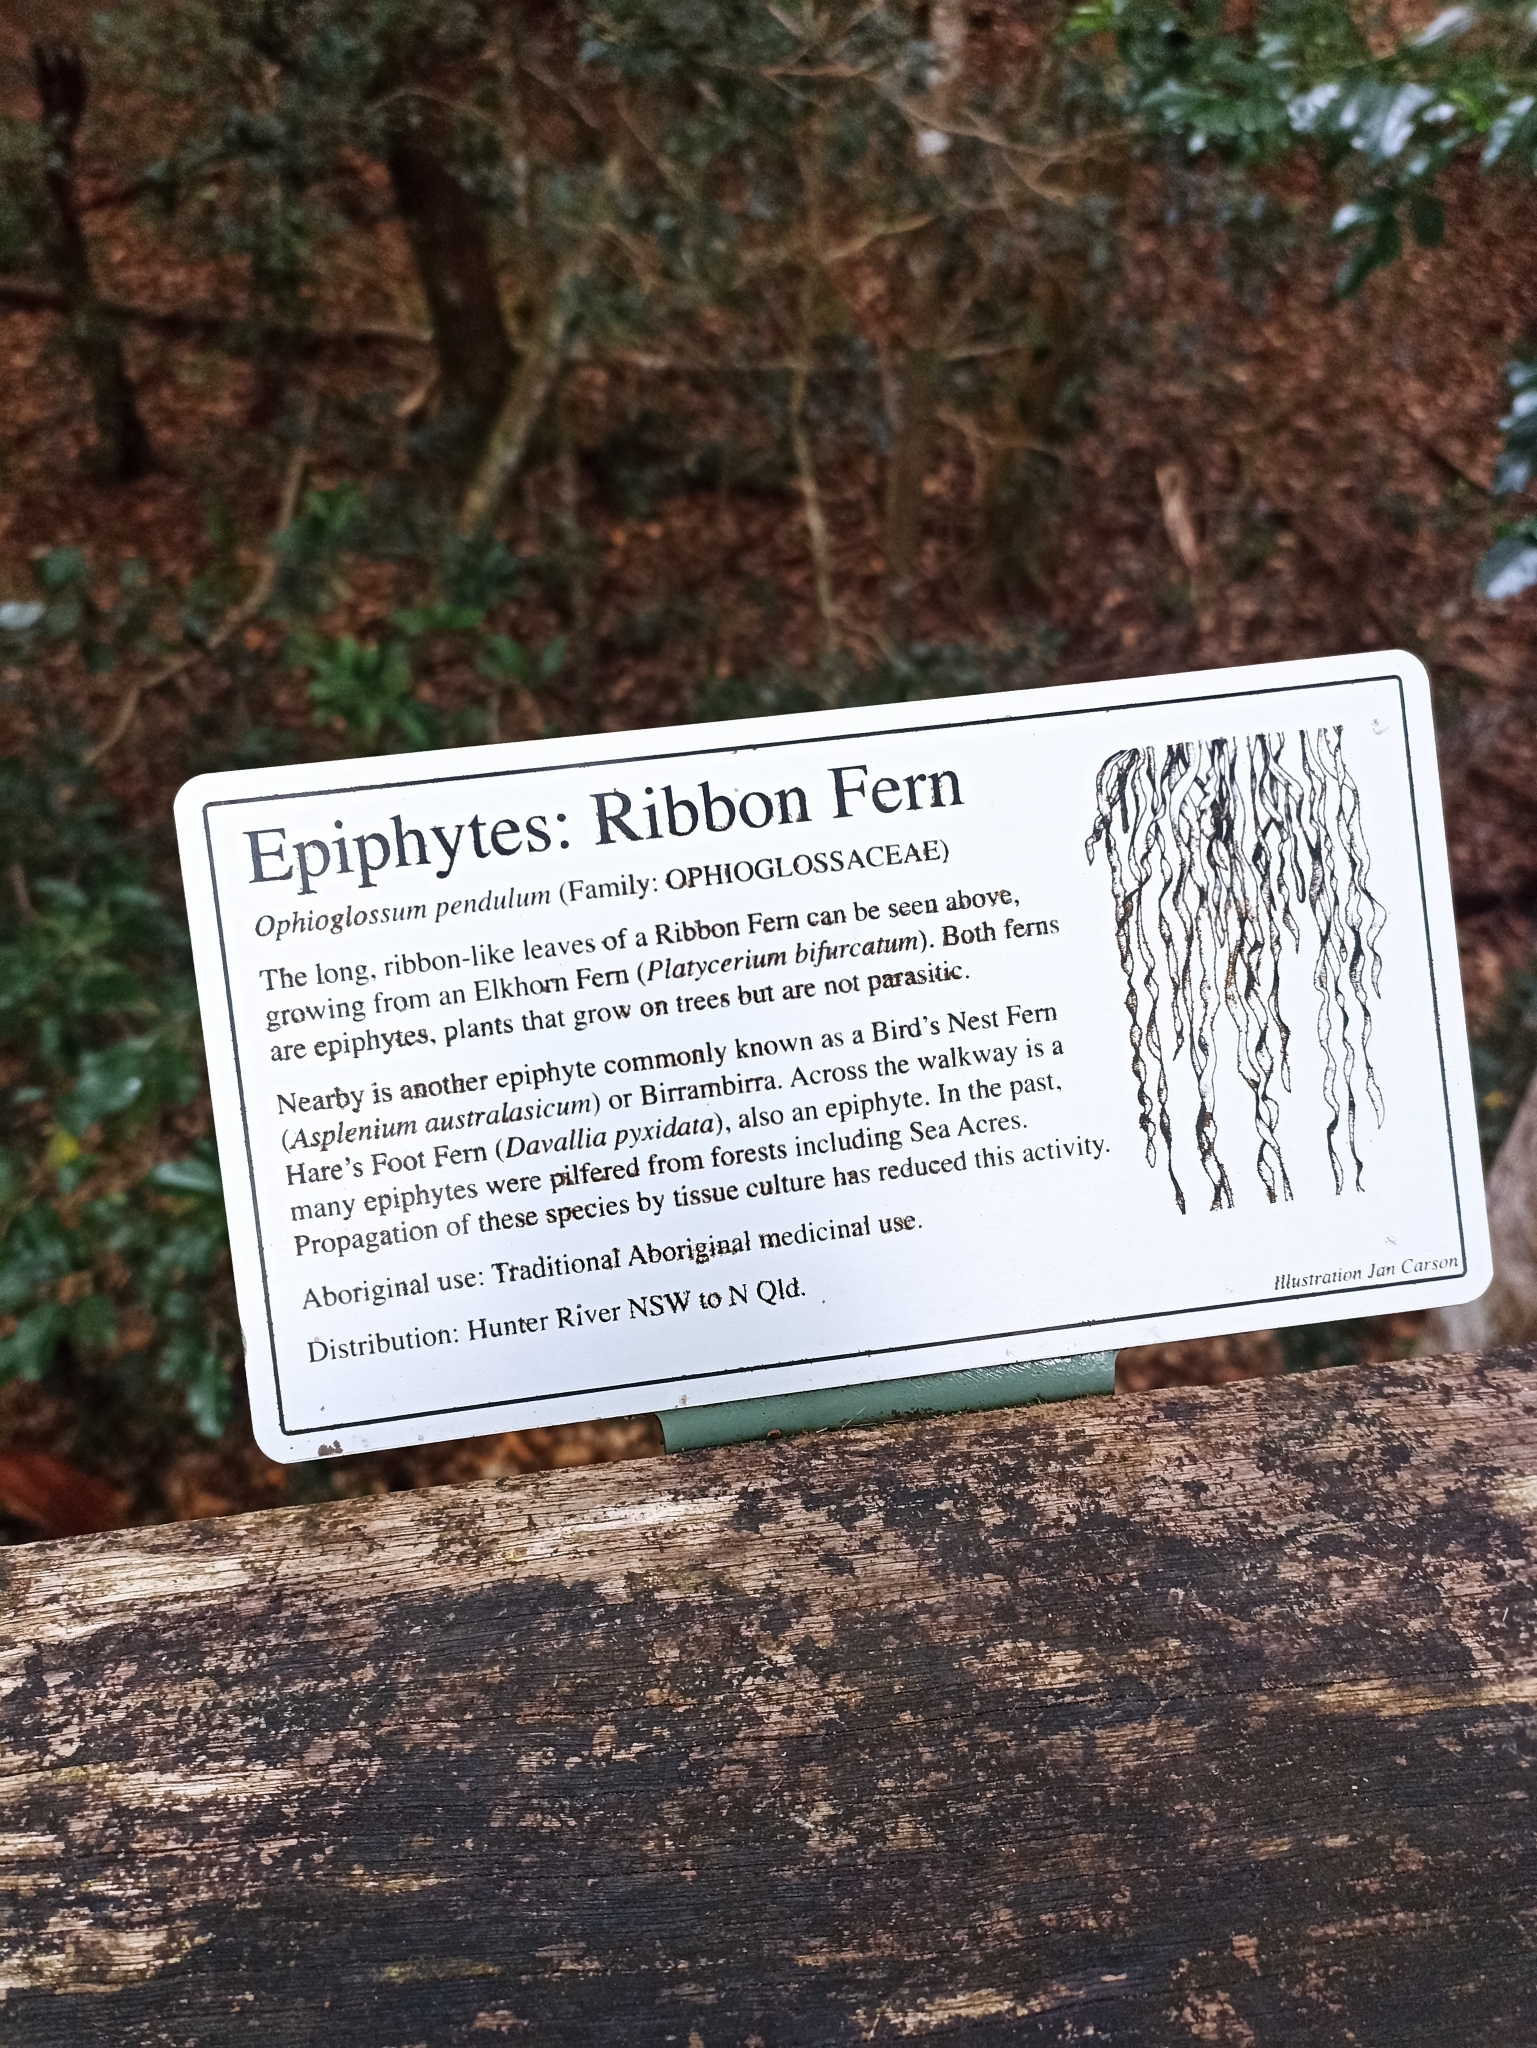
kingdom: Plantae
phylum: Tracheophyta
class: Polypodiopsida
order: Ophioglossales
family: Ophioglossaceae
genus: Ophioderma
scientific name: Ophioderma pendulum
